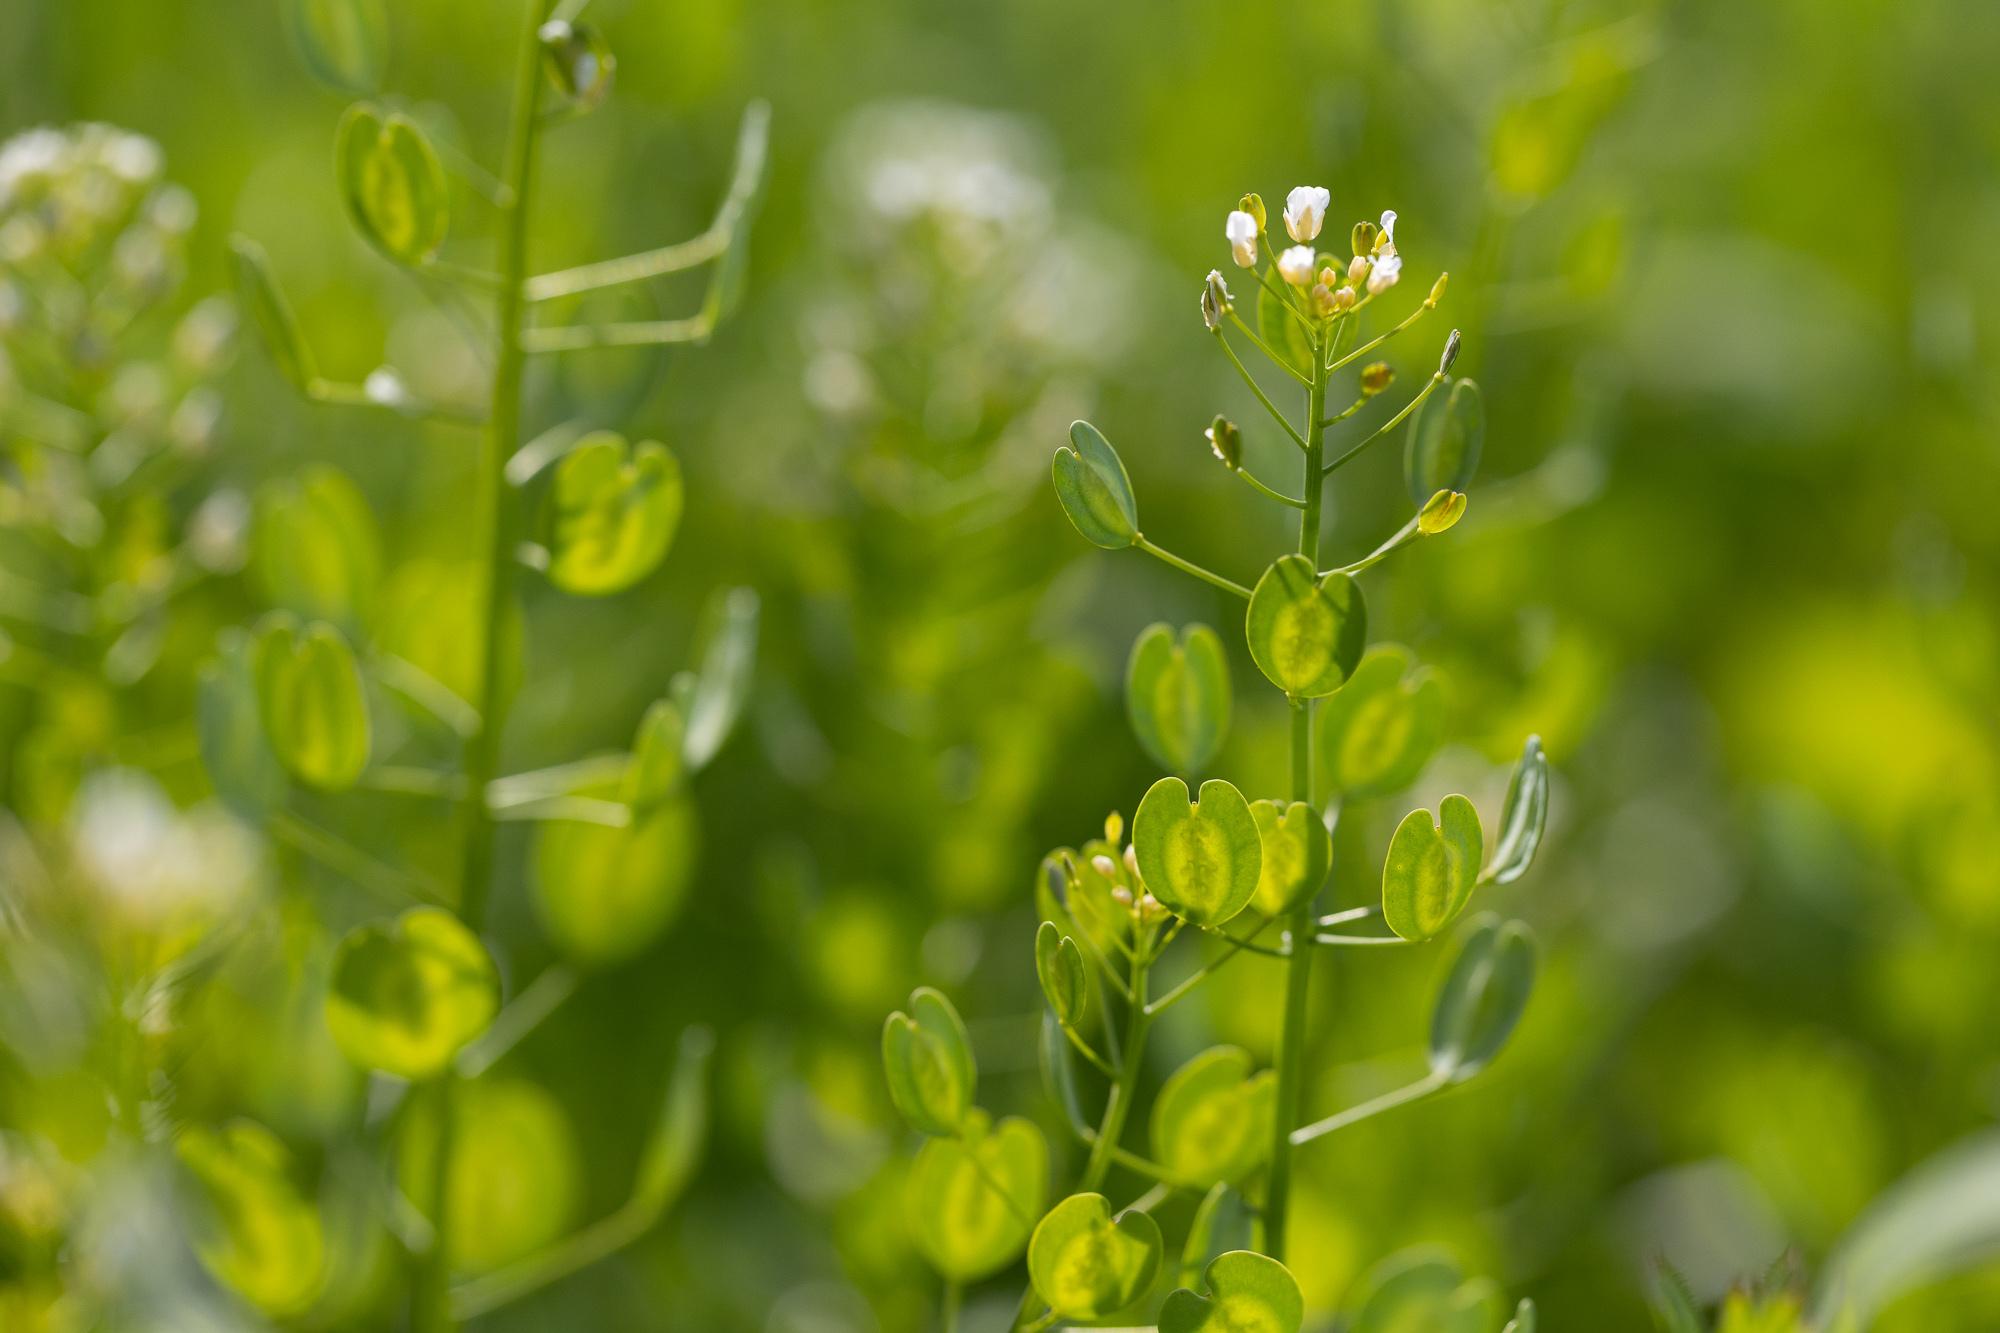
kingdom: Plantae
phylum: Tracheophyta
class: Magnoliopsida
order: Brassicales
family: Brassicaceae
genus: Thlaspi
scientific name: Thlaspi arvense
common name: Field pennycress
